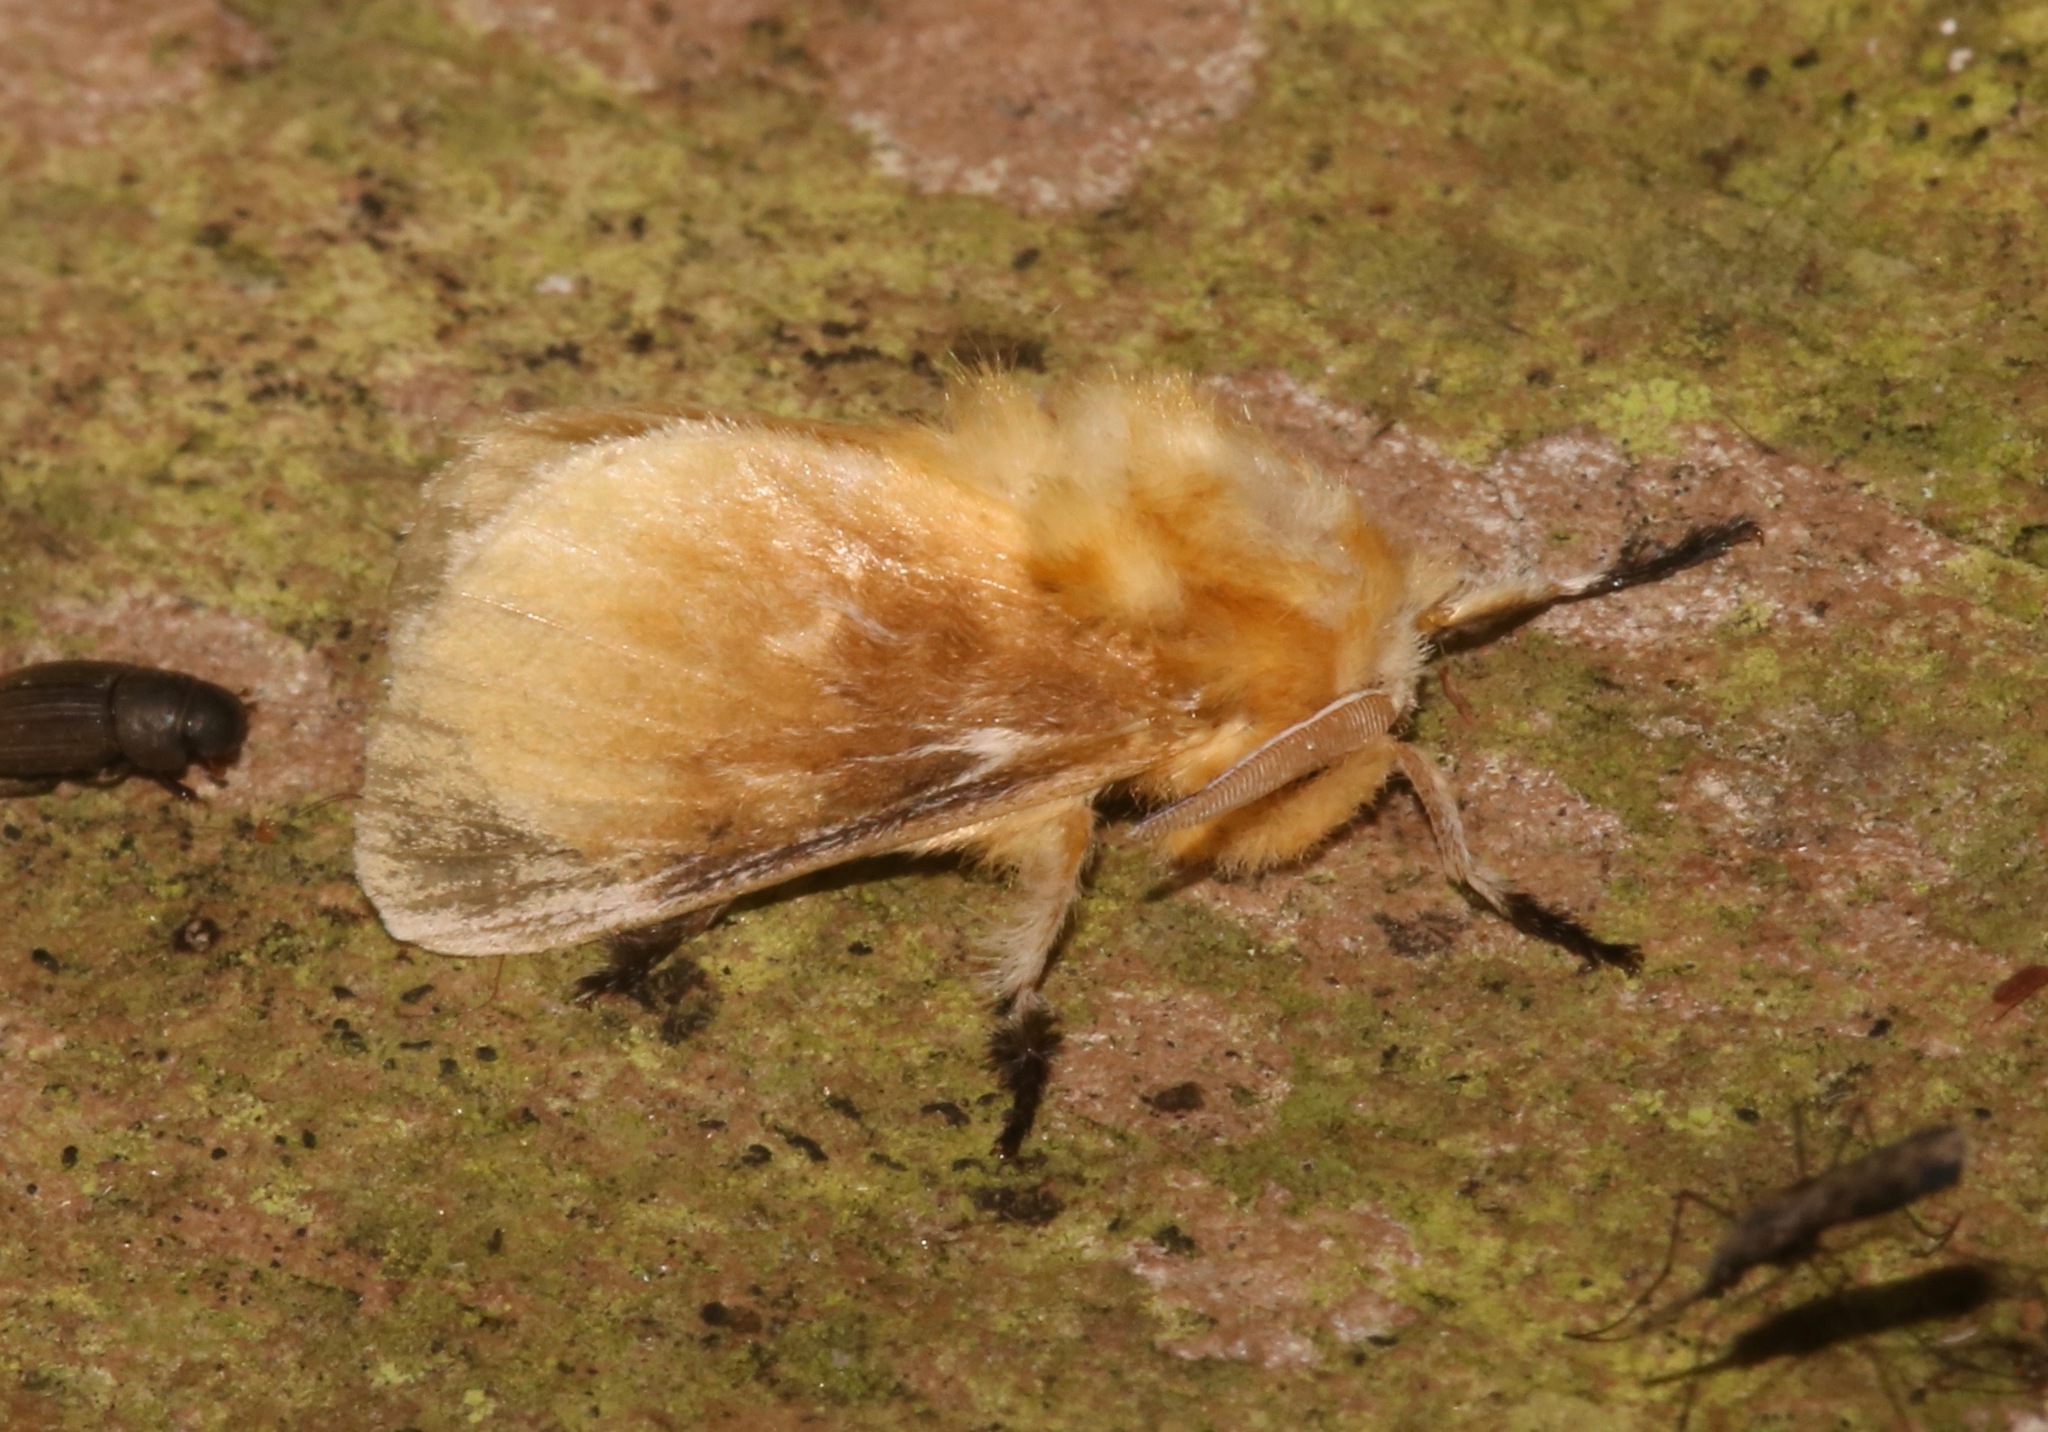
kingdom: Animalia
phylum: Arthropoda
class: Insecta
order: Lepidoptera
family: Megalopygidae
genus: Megalopyge
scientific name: Megalopyge opercularis
